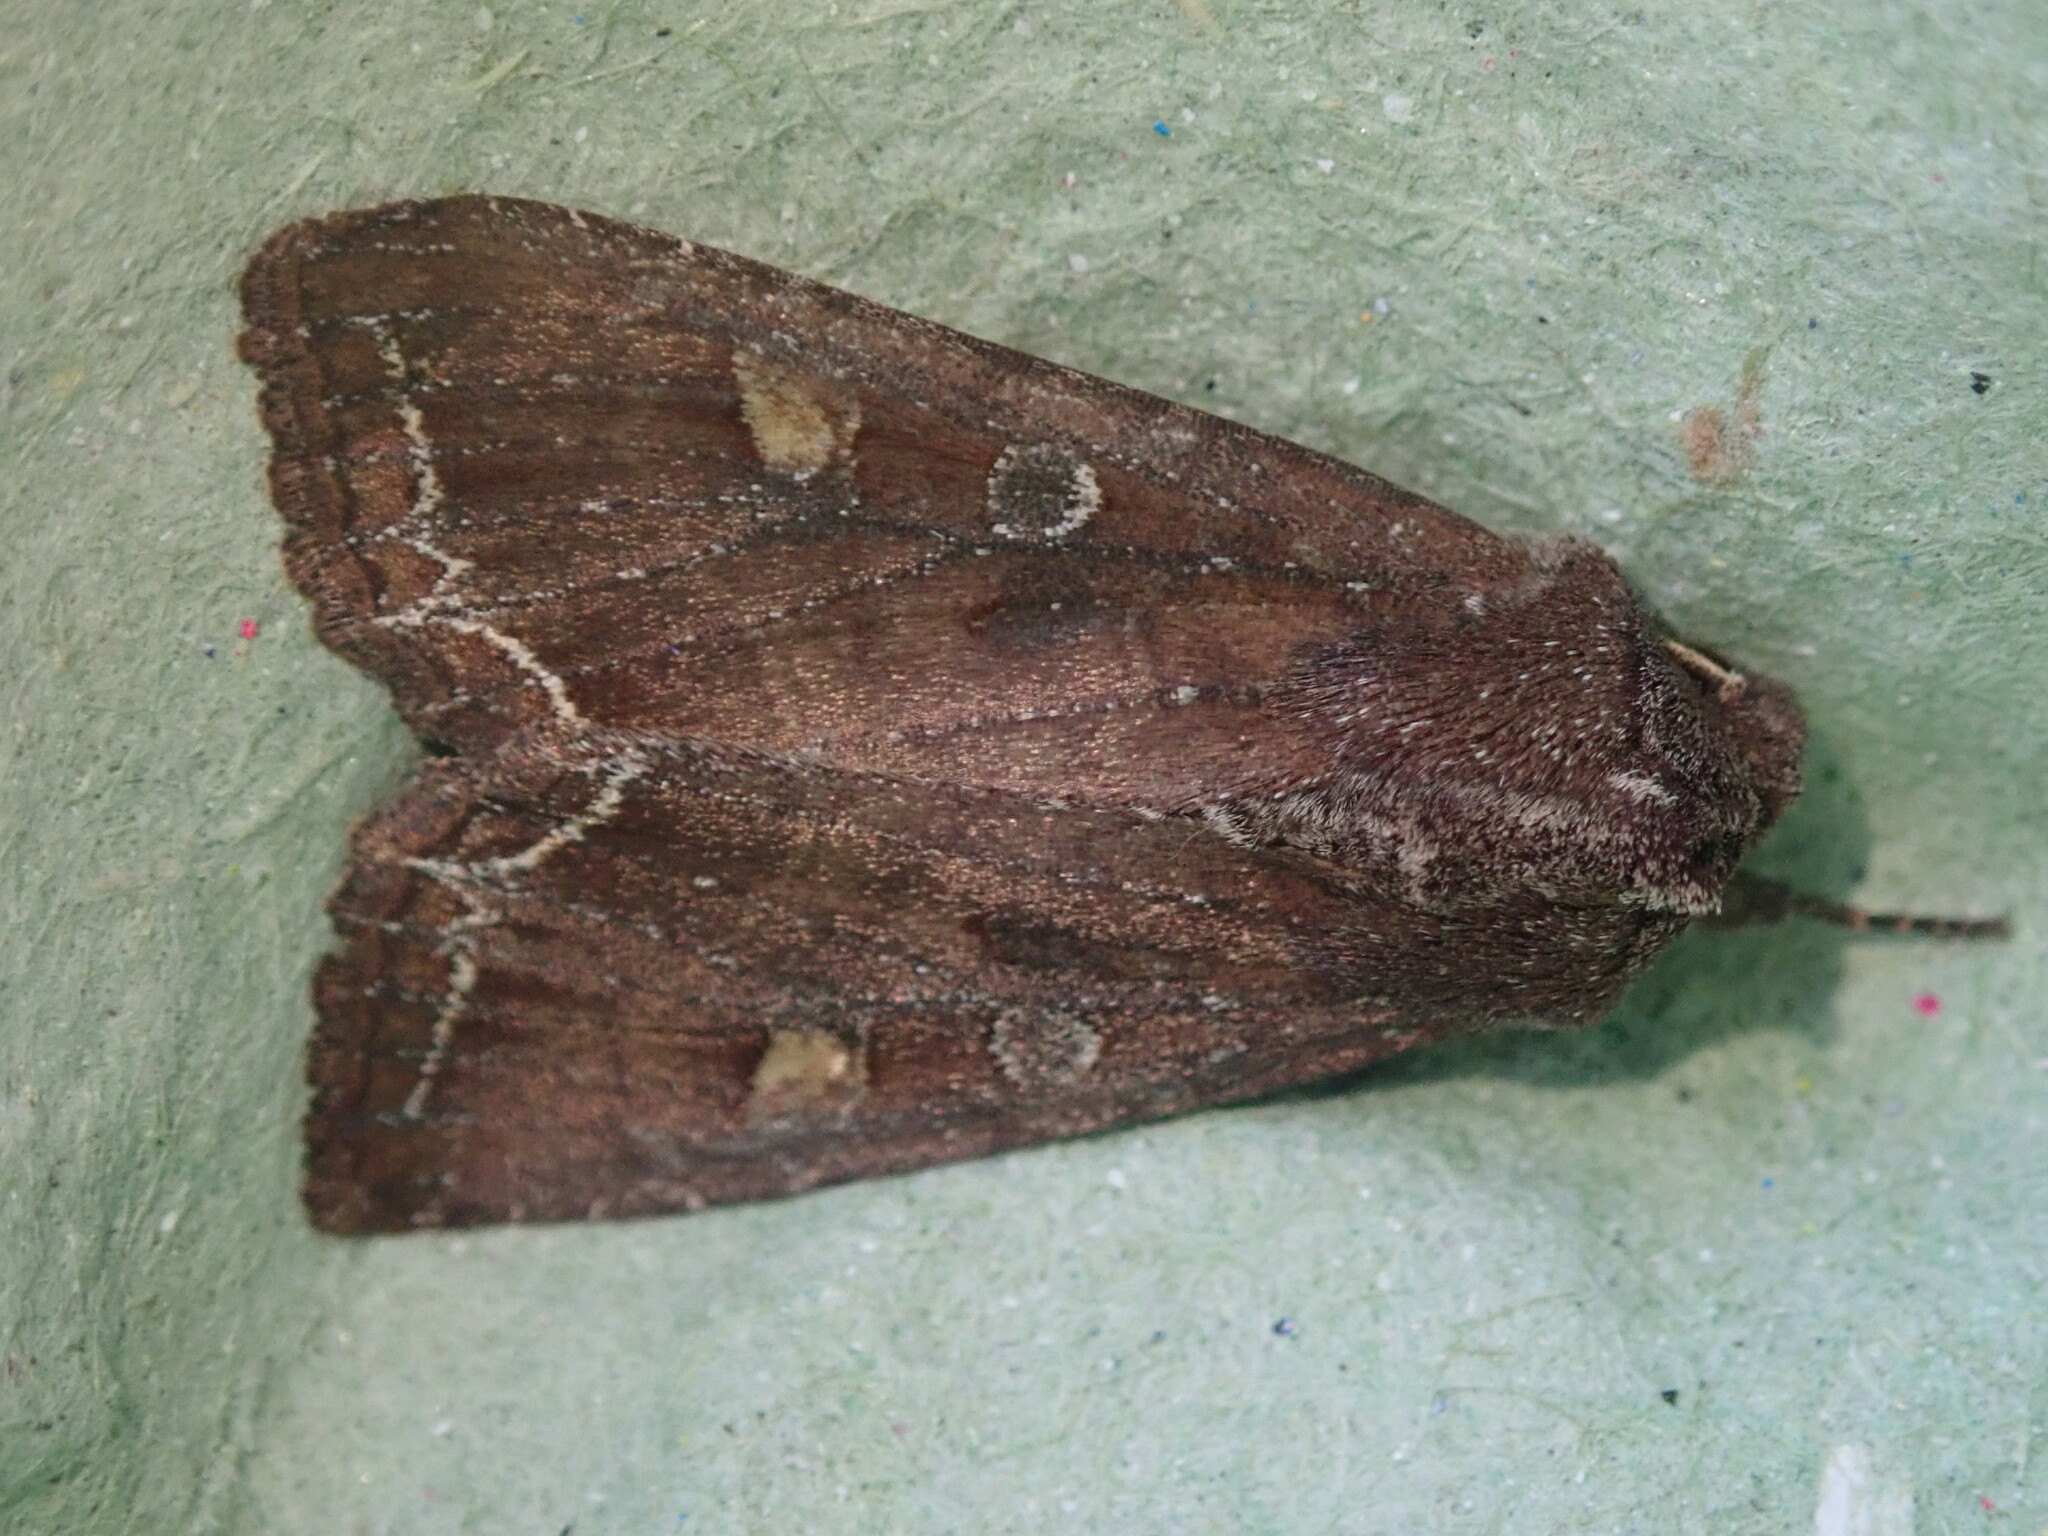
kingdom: Animalia
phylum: Arthropoda
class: Insecta
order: Lepidoptera
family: Noctuidae
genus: Lacanobia
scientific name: Lacanobia oleracea
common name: Bright-line brown-eye
